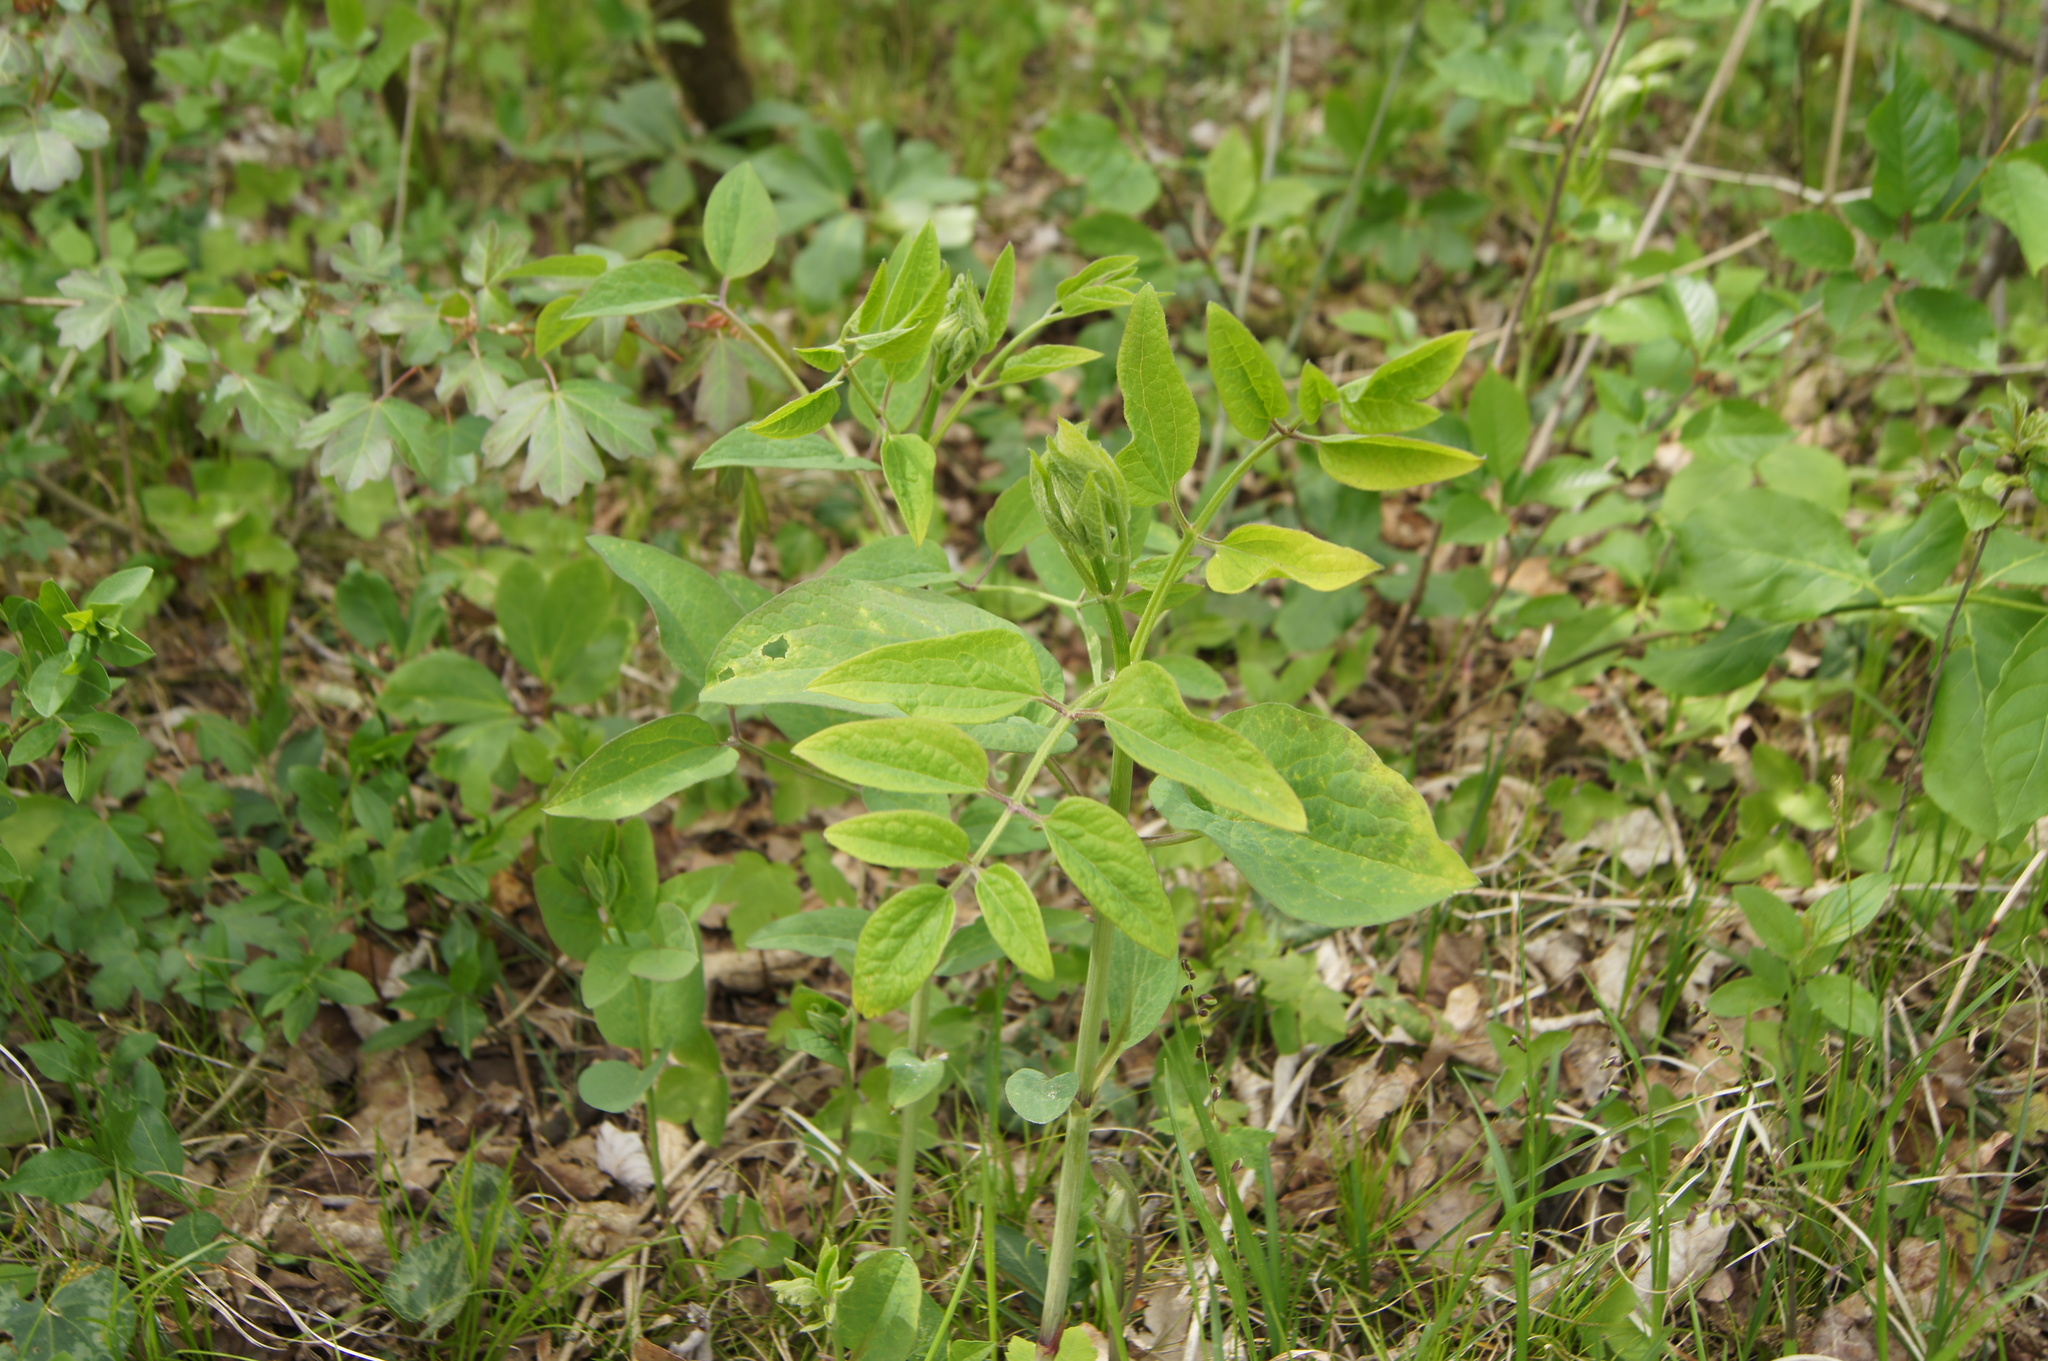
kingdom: Plantae
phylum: Tracheophyta
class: Magnoliopsida
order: Ranunculales
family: Ranunculaceae
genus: Clematis
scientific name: Clematis recta
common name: Ground clematis
